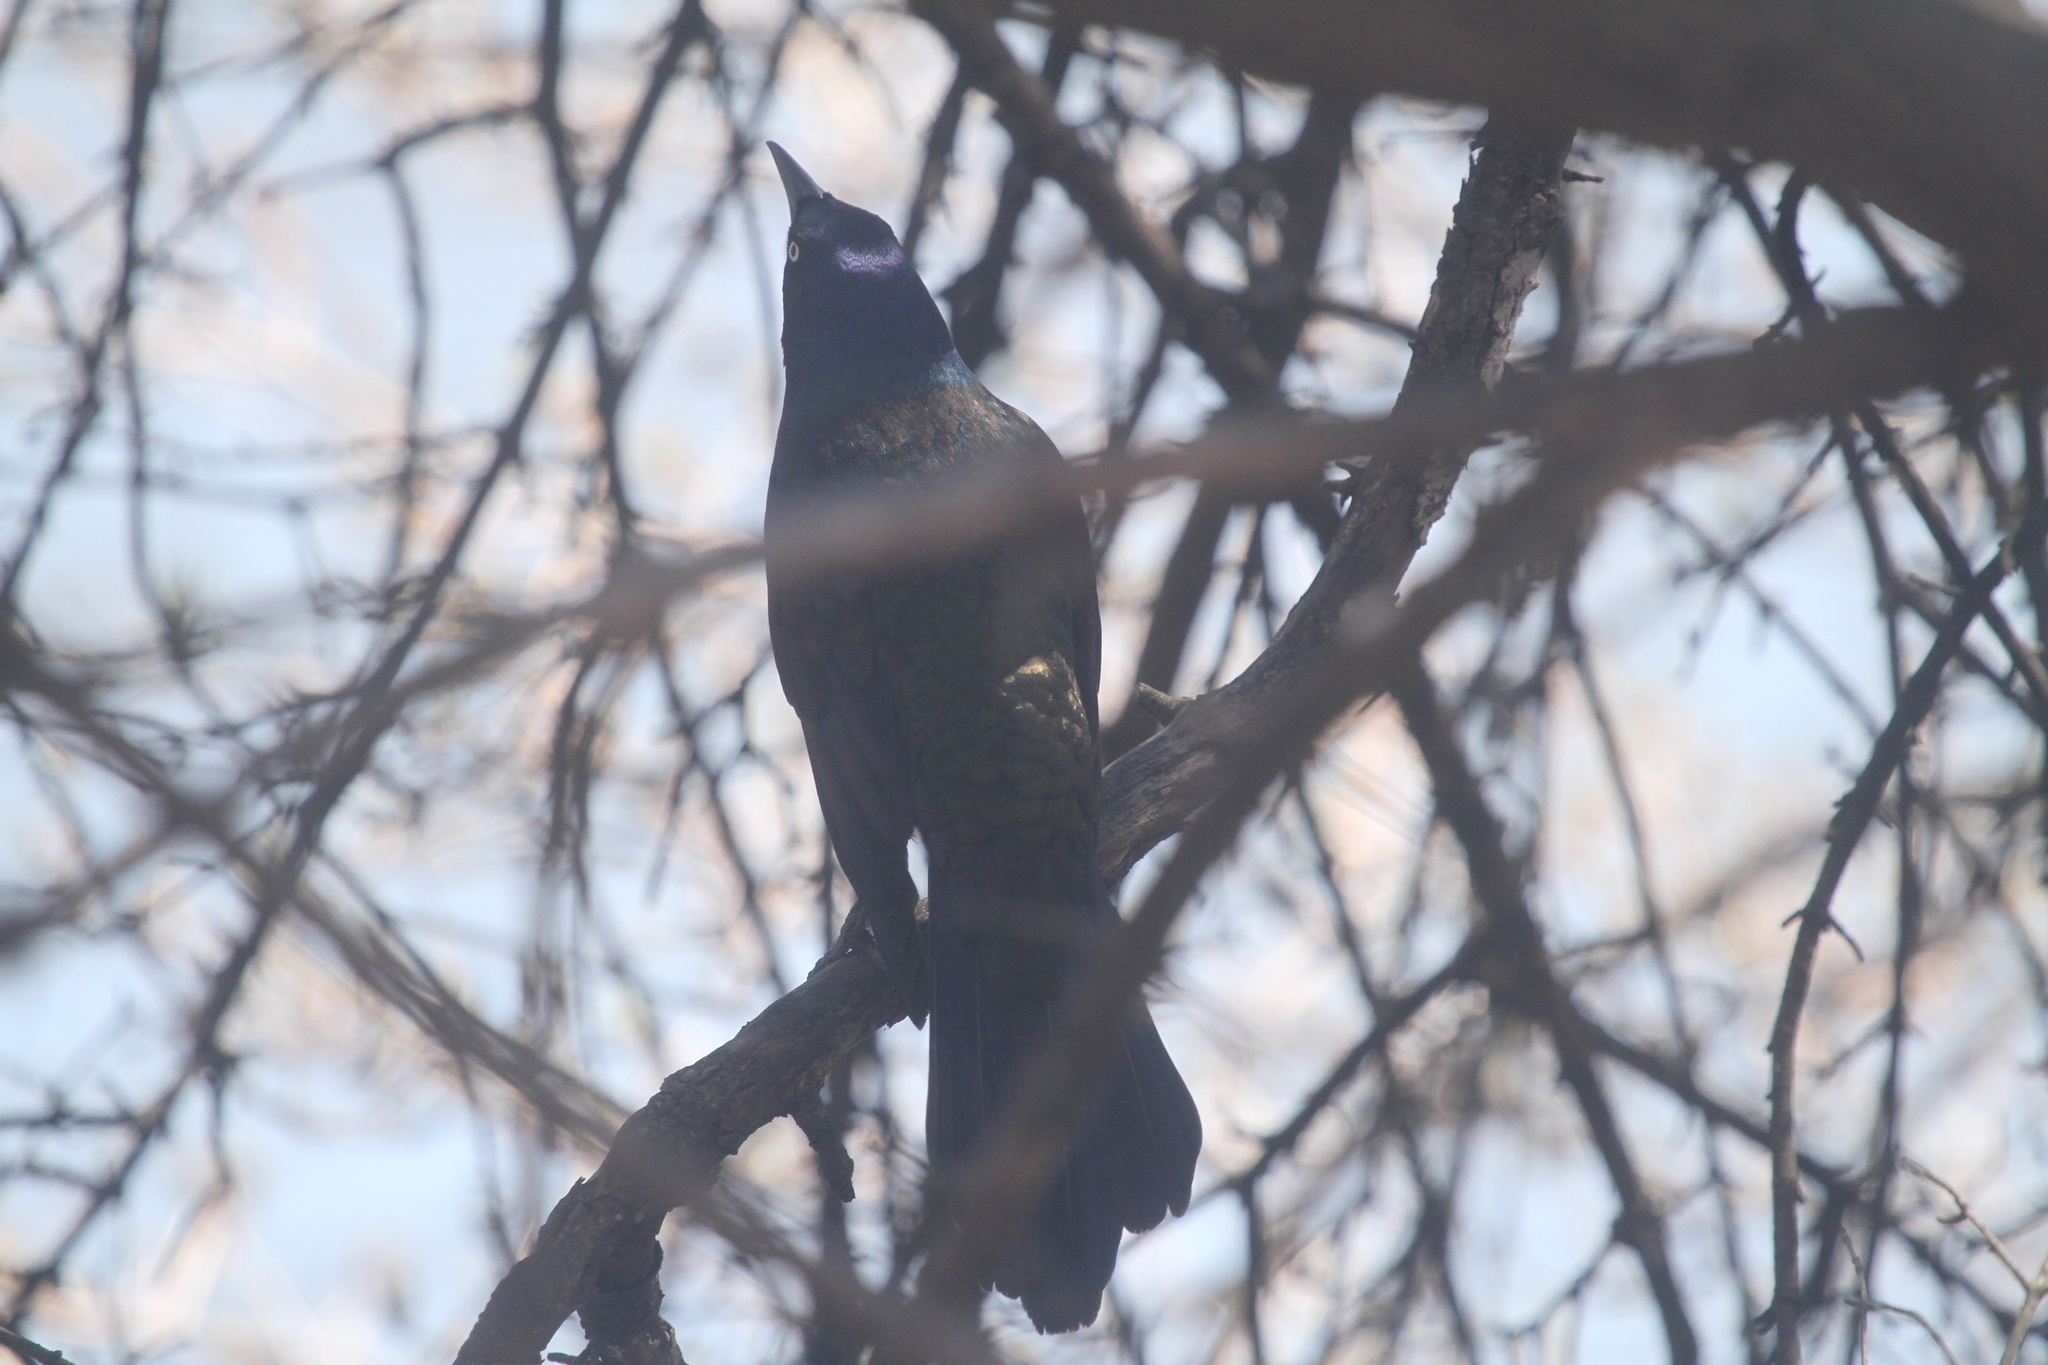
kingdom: Animalia
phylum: Chordata
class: Aves
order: Passeriformes
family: Icteridae
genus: Quiscalus
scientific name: Quiscalus quiscula
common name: Common grackle
